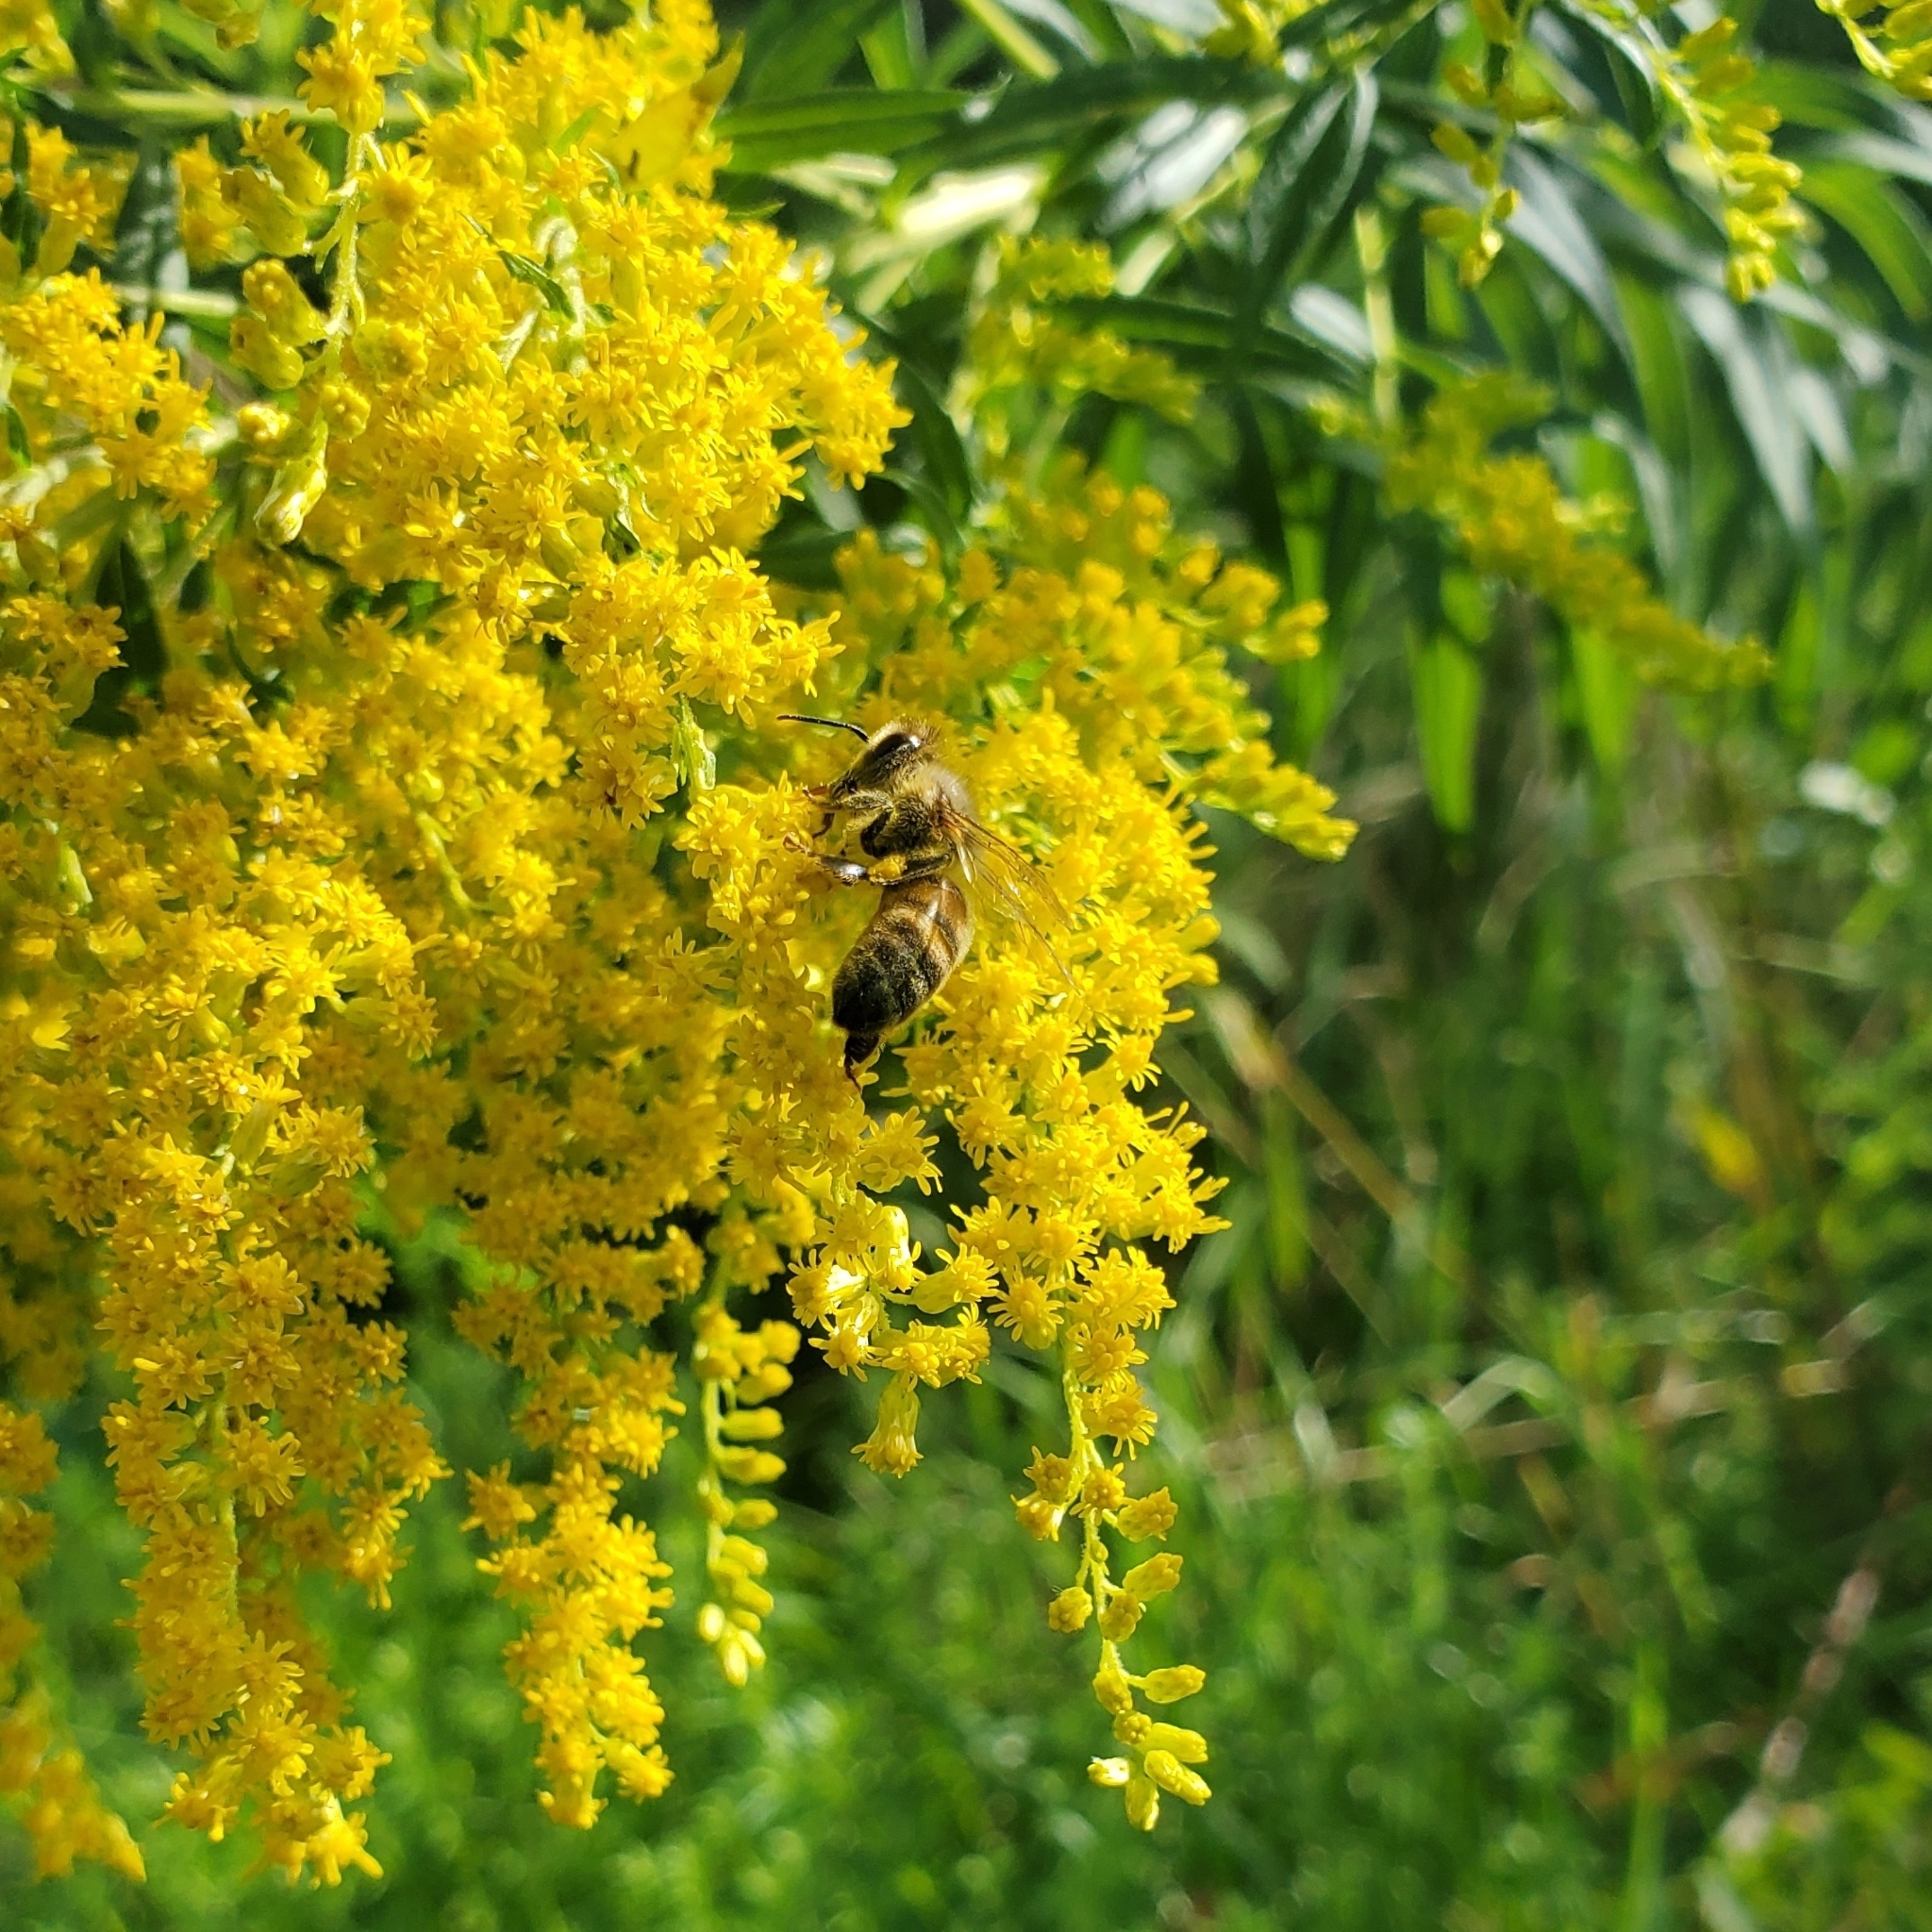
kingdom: Animalia
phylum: Arthropoda
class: Insecta
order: Hymenoptera
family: Apidae
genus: Apis
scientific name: Apis mellifera
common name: Honey bee
